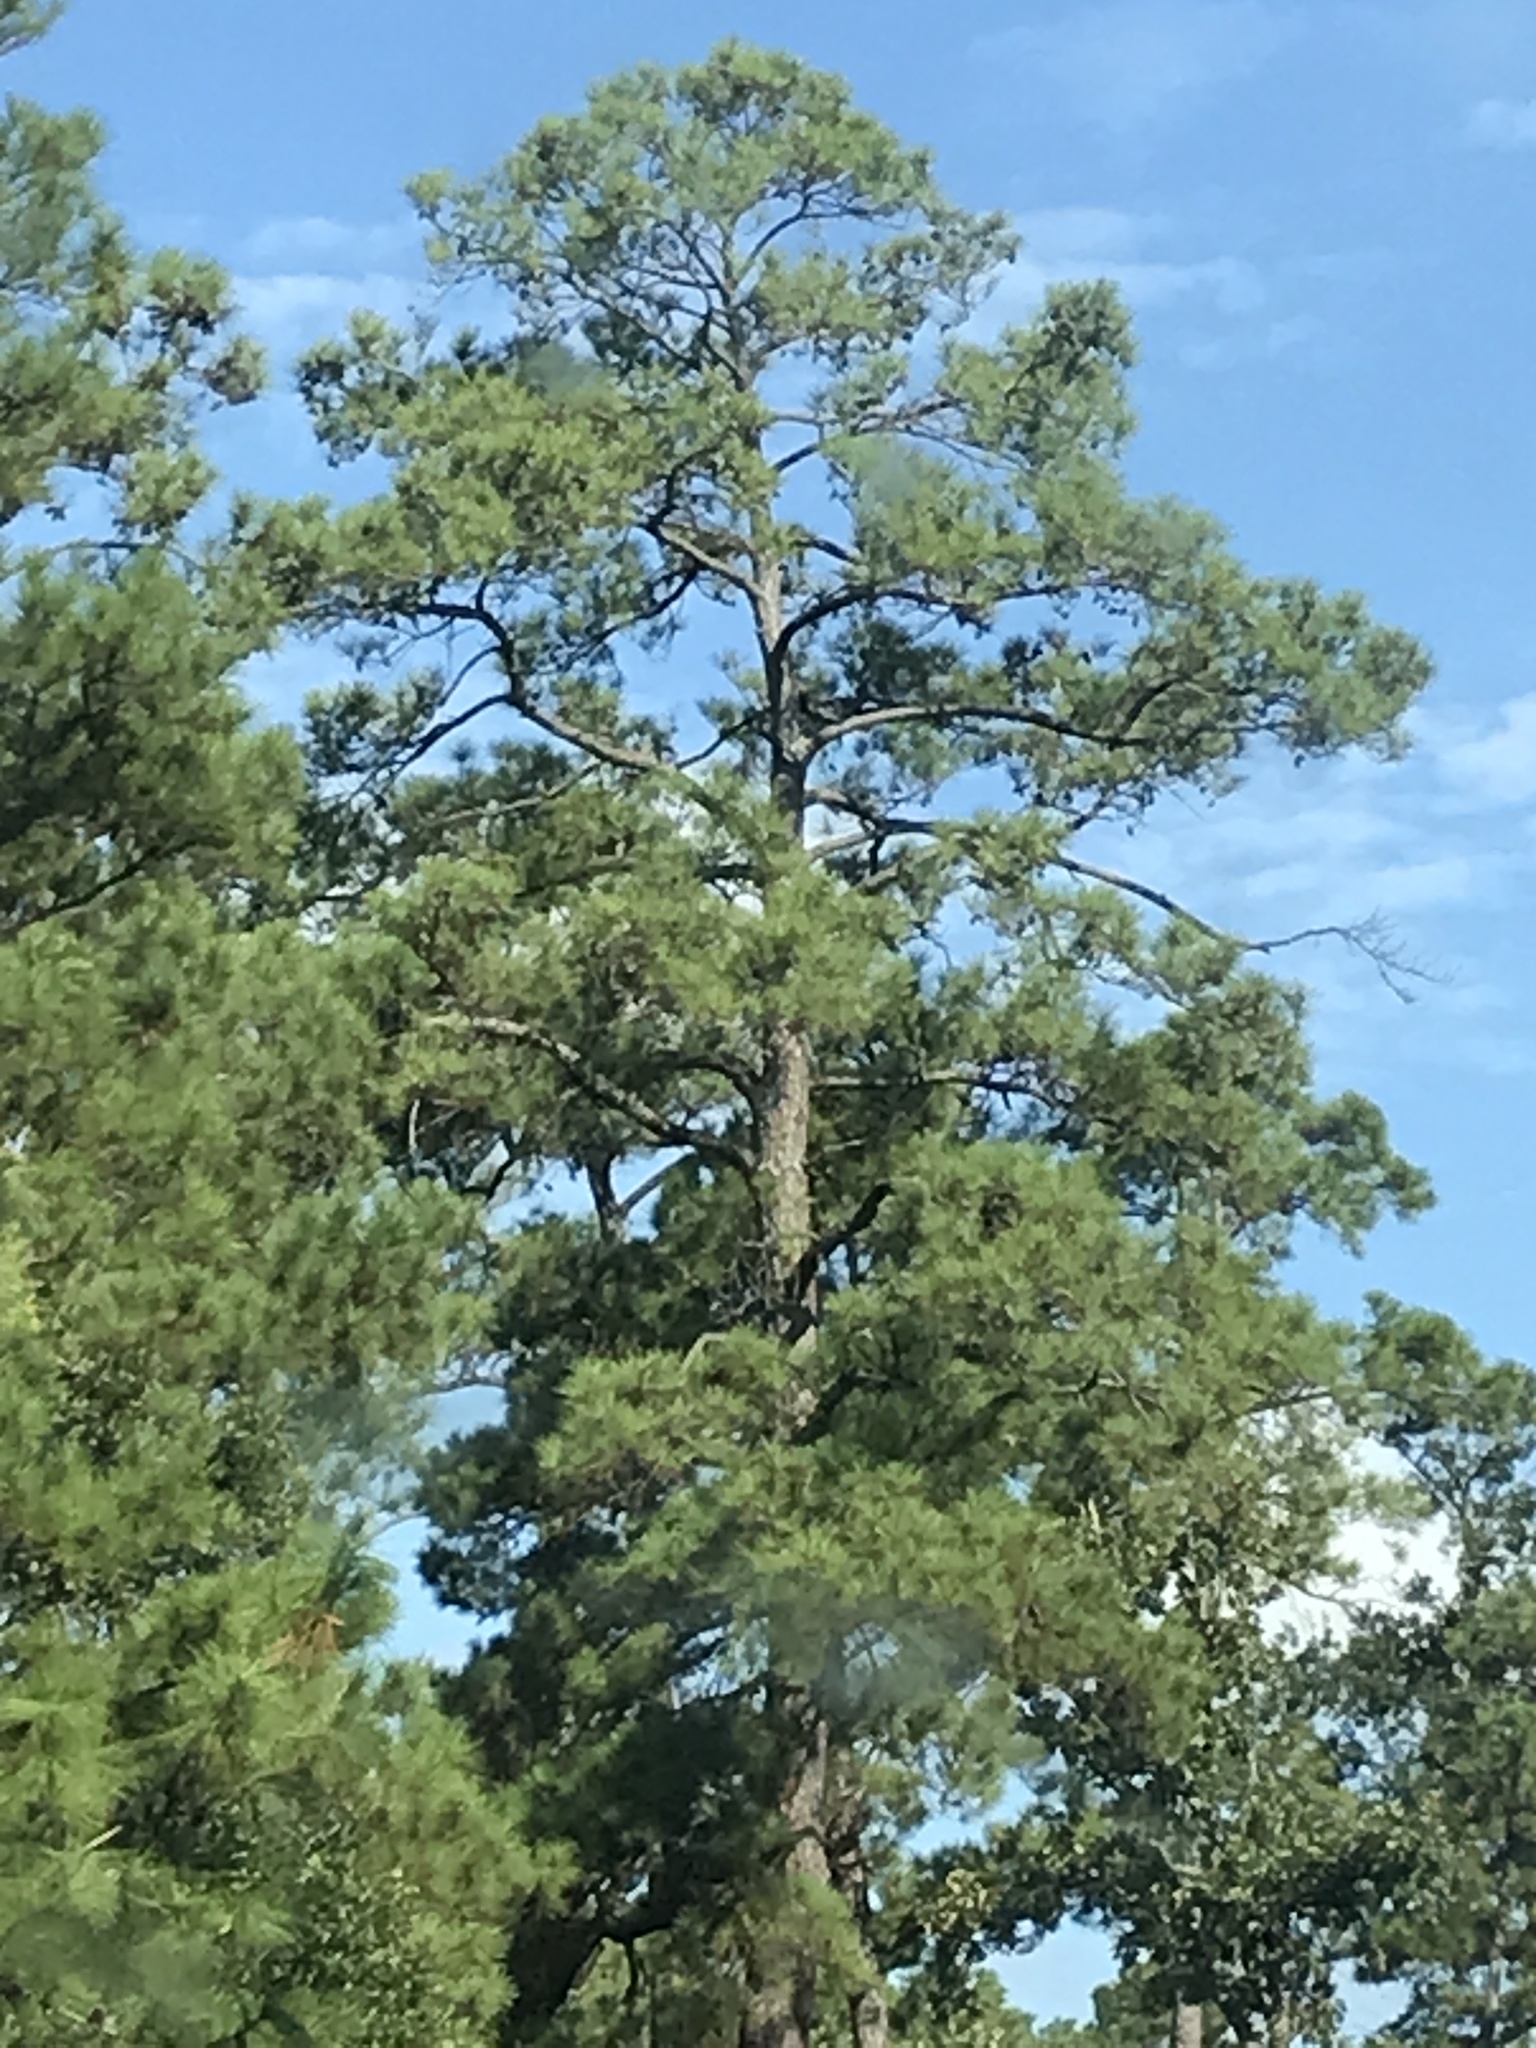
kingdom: Plantae
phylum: Tracheophyta
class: Pinopsida
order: Pinales
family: Pinaceae
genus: Pinus
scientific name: Pinus echinata
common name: Shortleaf pine
